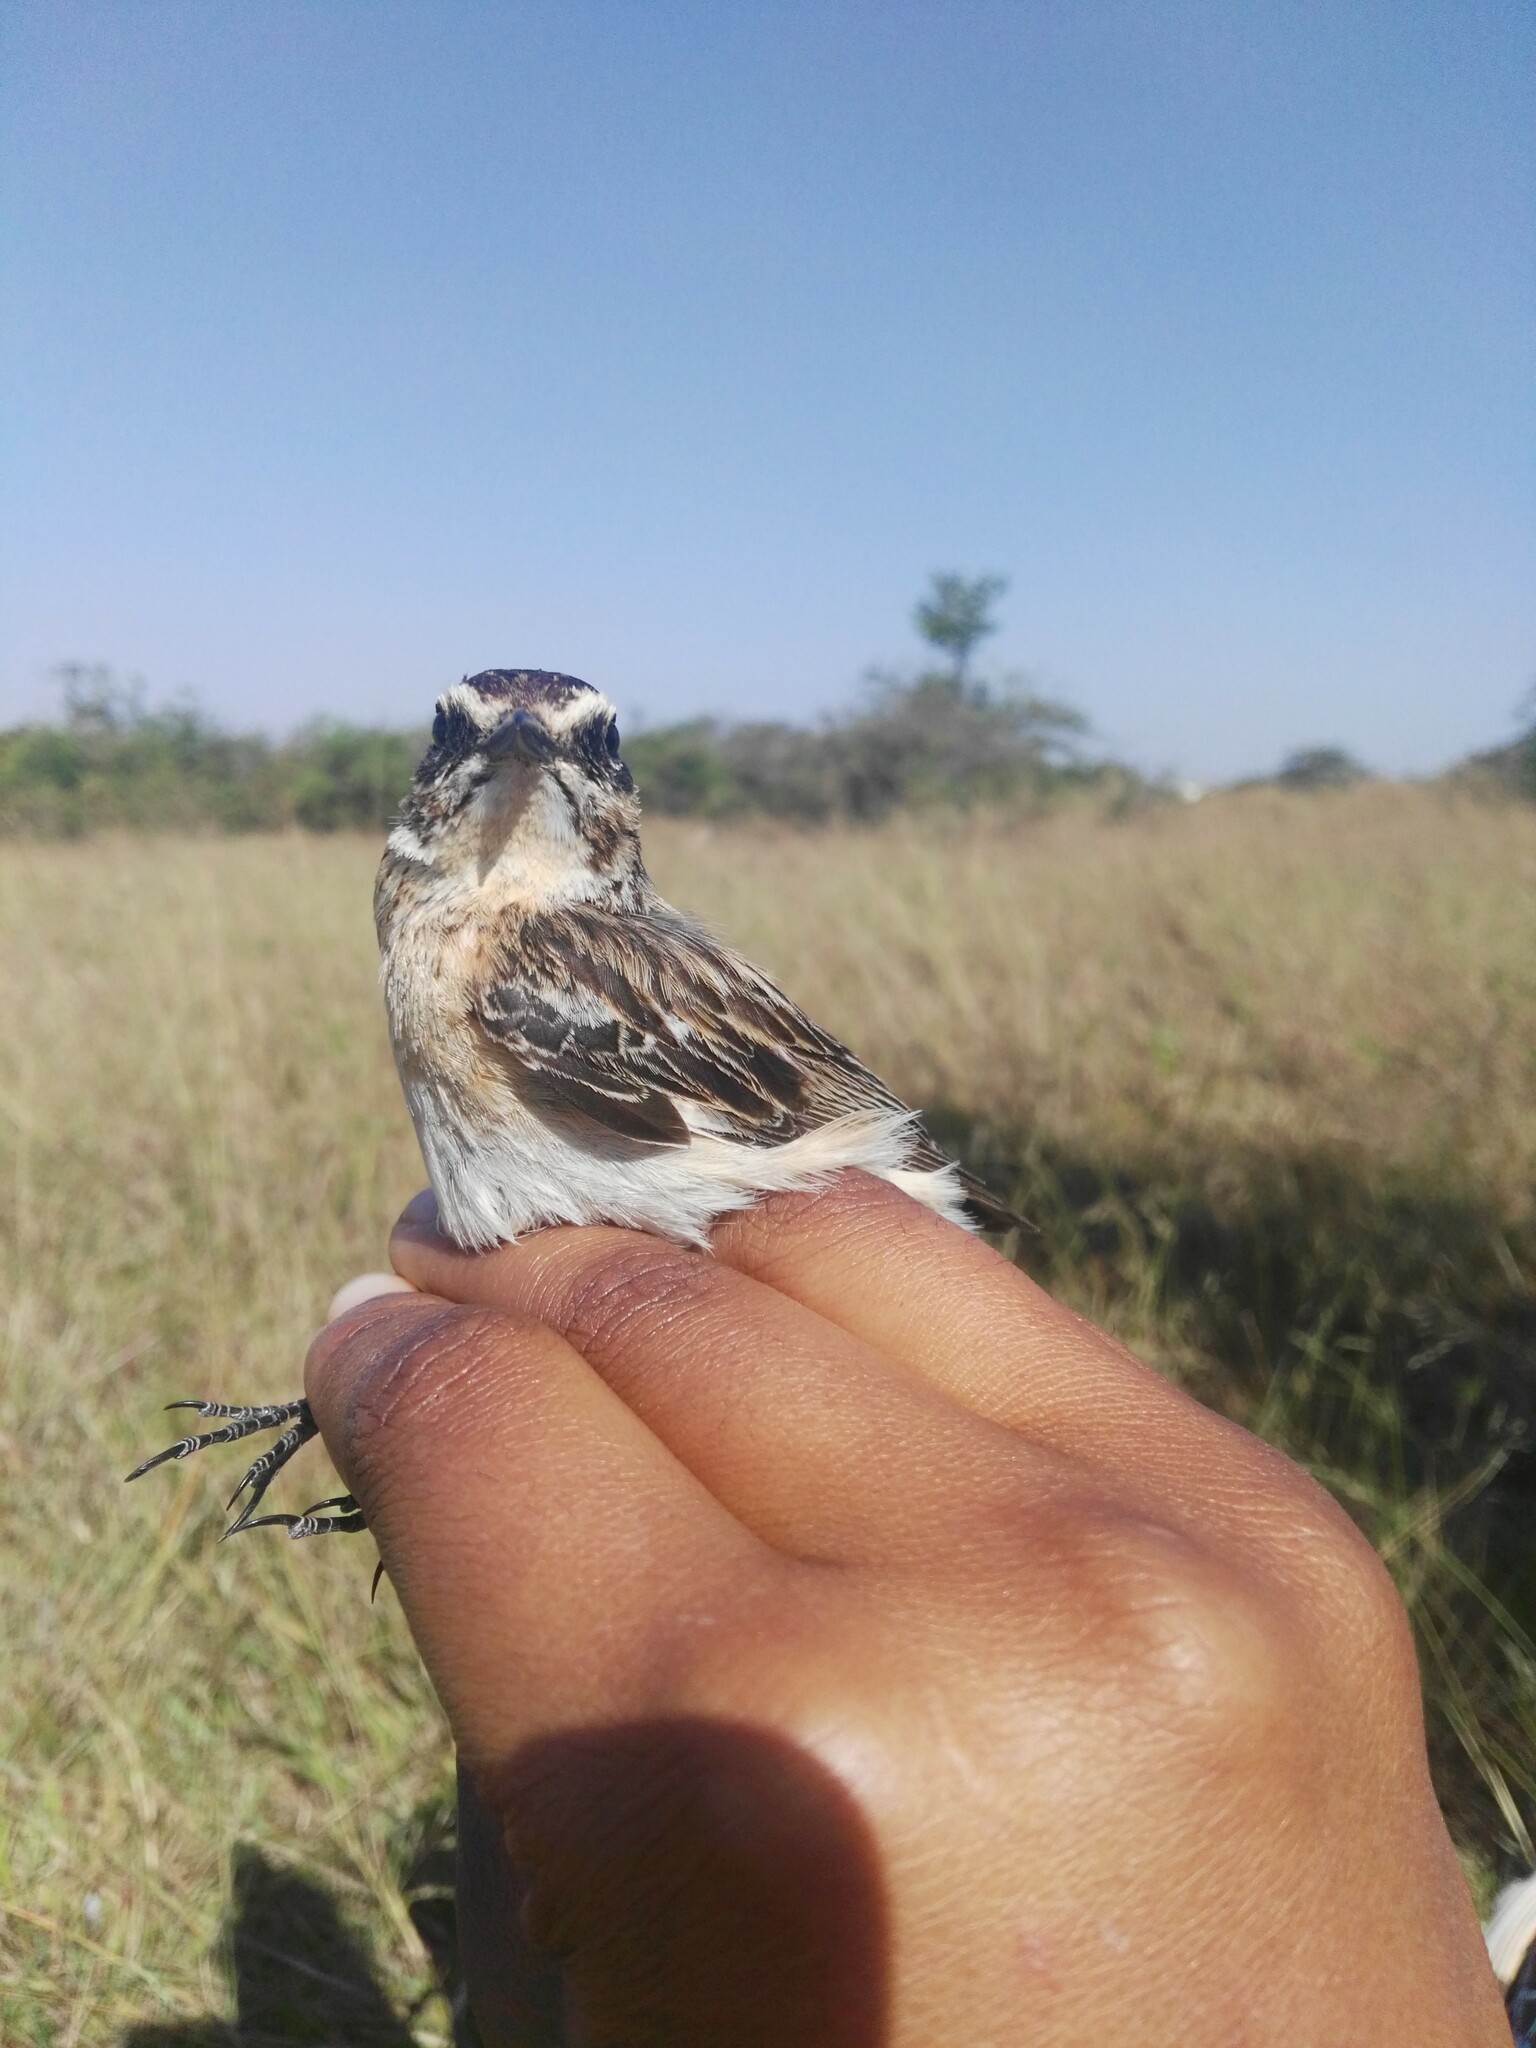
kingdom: Animalia
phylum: Chordata
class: Aves
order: Passeriformes
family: Muscicapidae
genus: Saxicola
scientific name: Saxicola rubetra
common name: Whinchat
